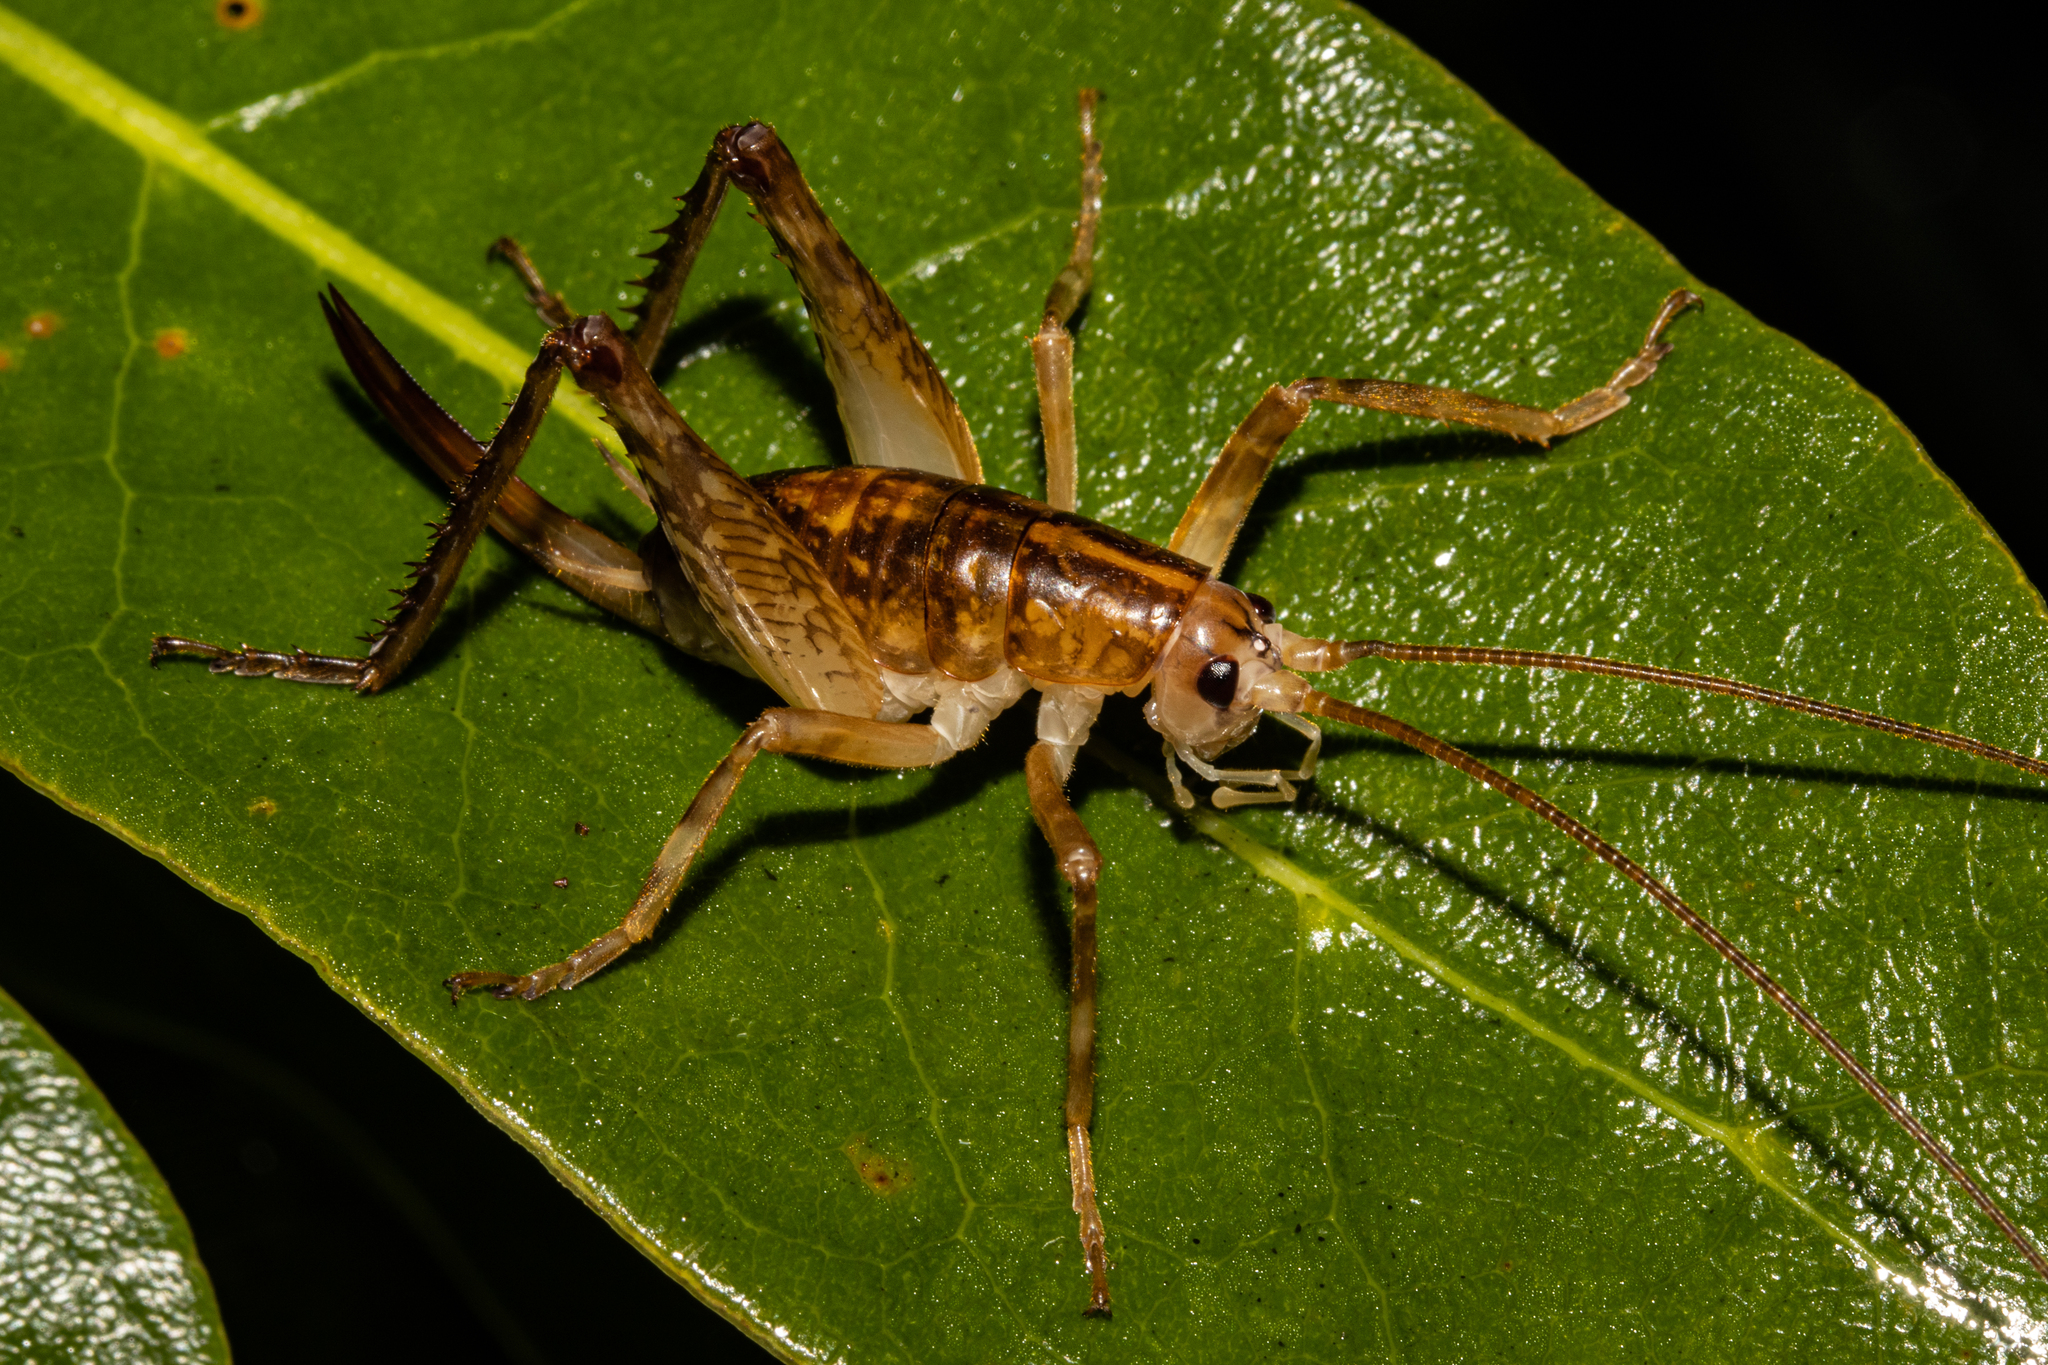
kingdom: Animalia
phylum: Arthropoda
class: Insecta
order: Orthoptera
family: Rhaphidophoridae
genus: Talitropsis
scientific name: Talitropsis sedilloti
